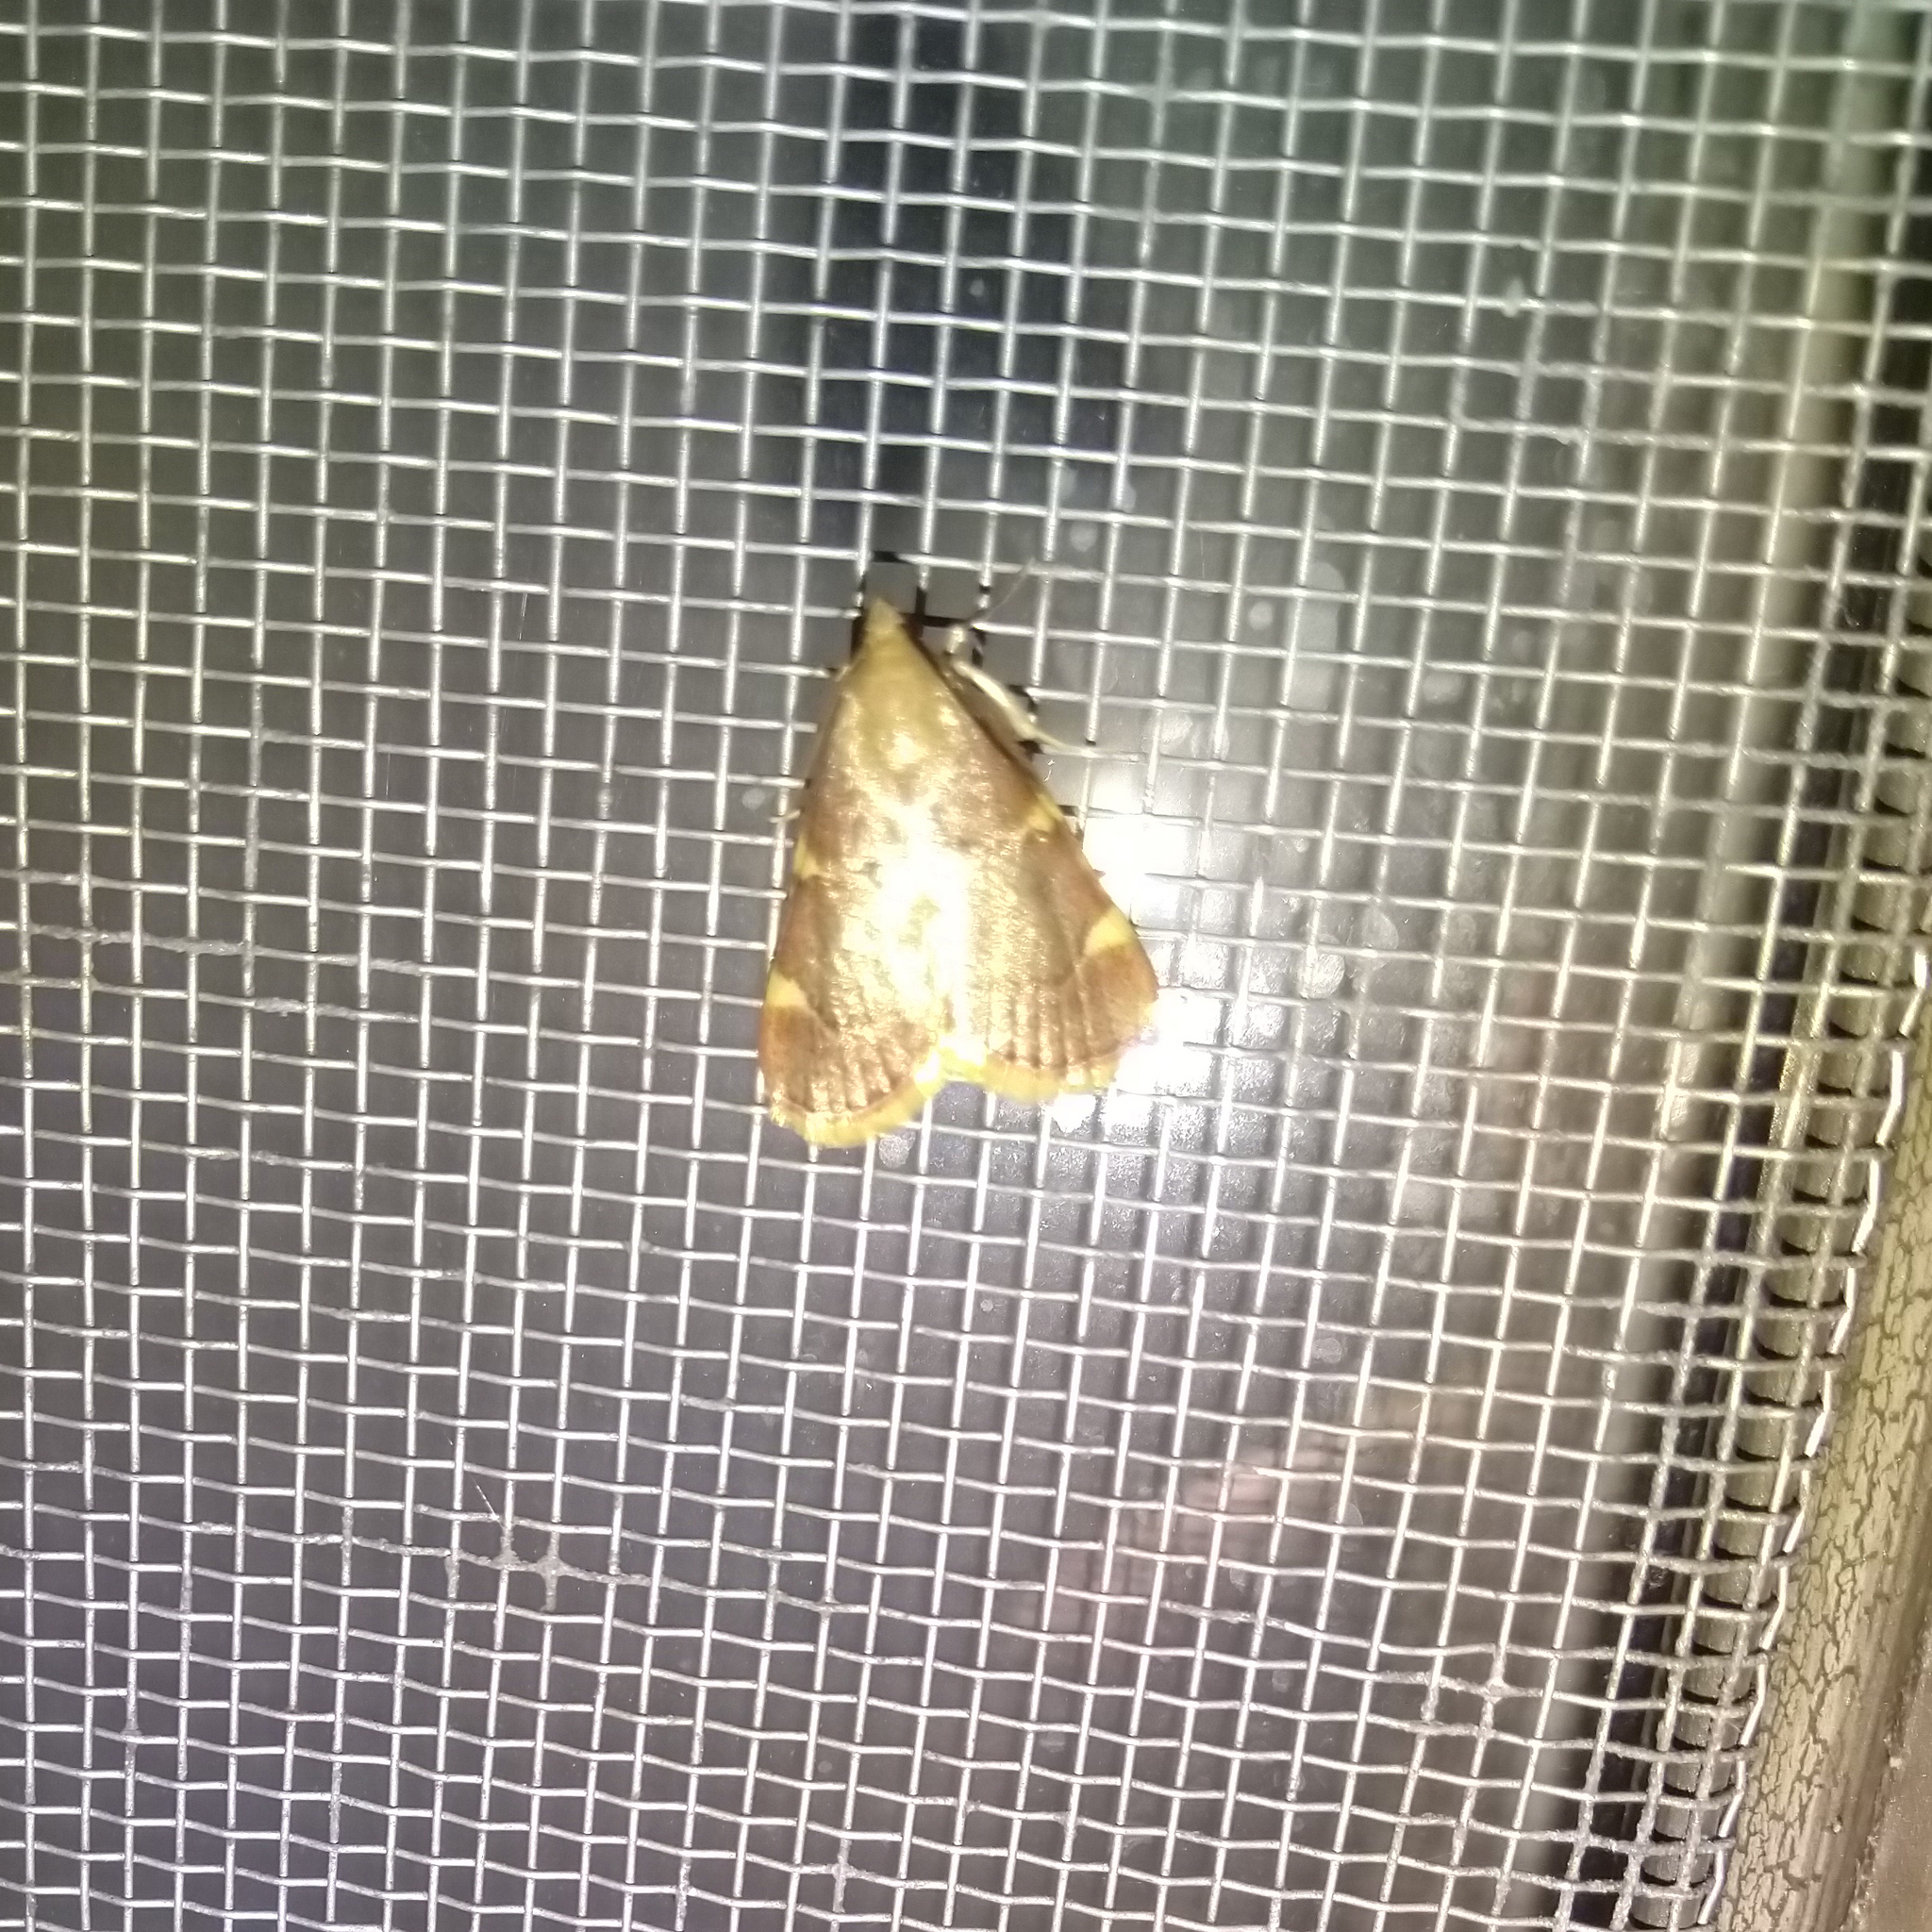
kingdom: Animalia
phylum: Arthropoda
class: Insecta
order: Lepidoptera
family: Pyralidae
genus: Hypsopygia
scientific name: Hypsopygia olinalis
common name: Yellow-fringed dolichomia moth
